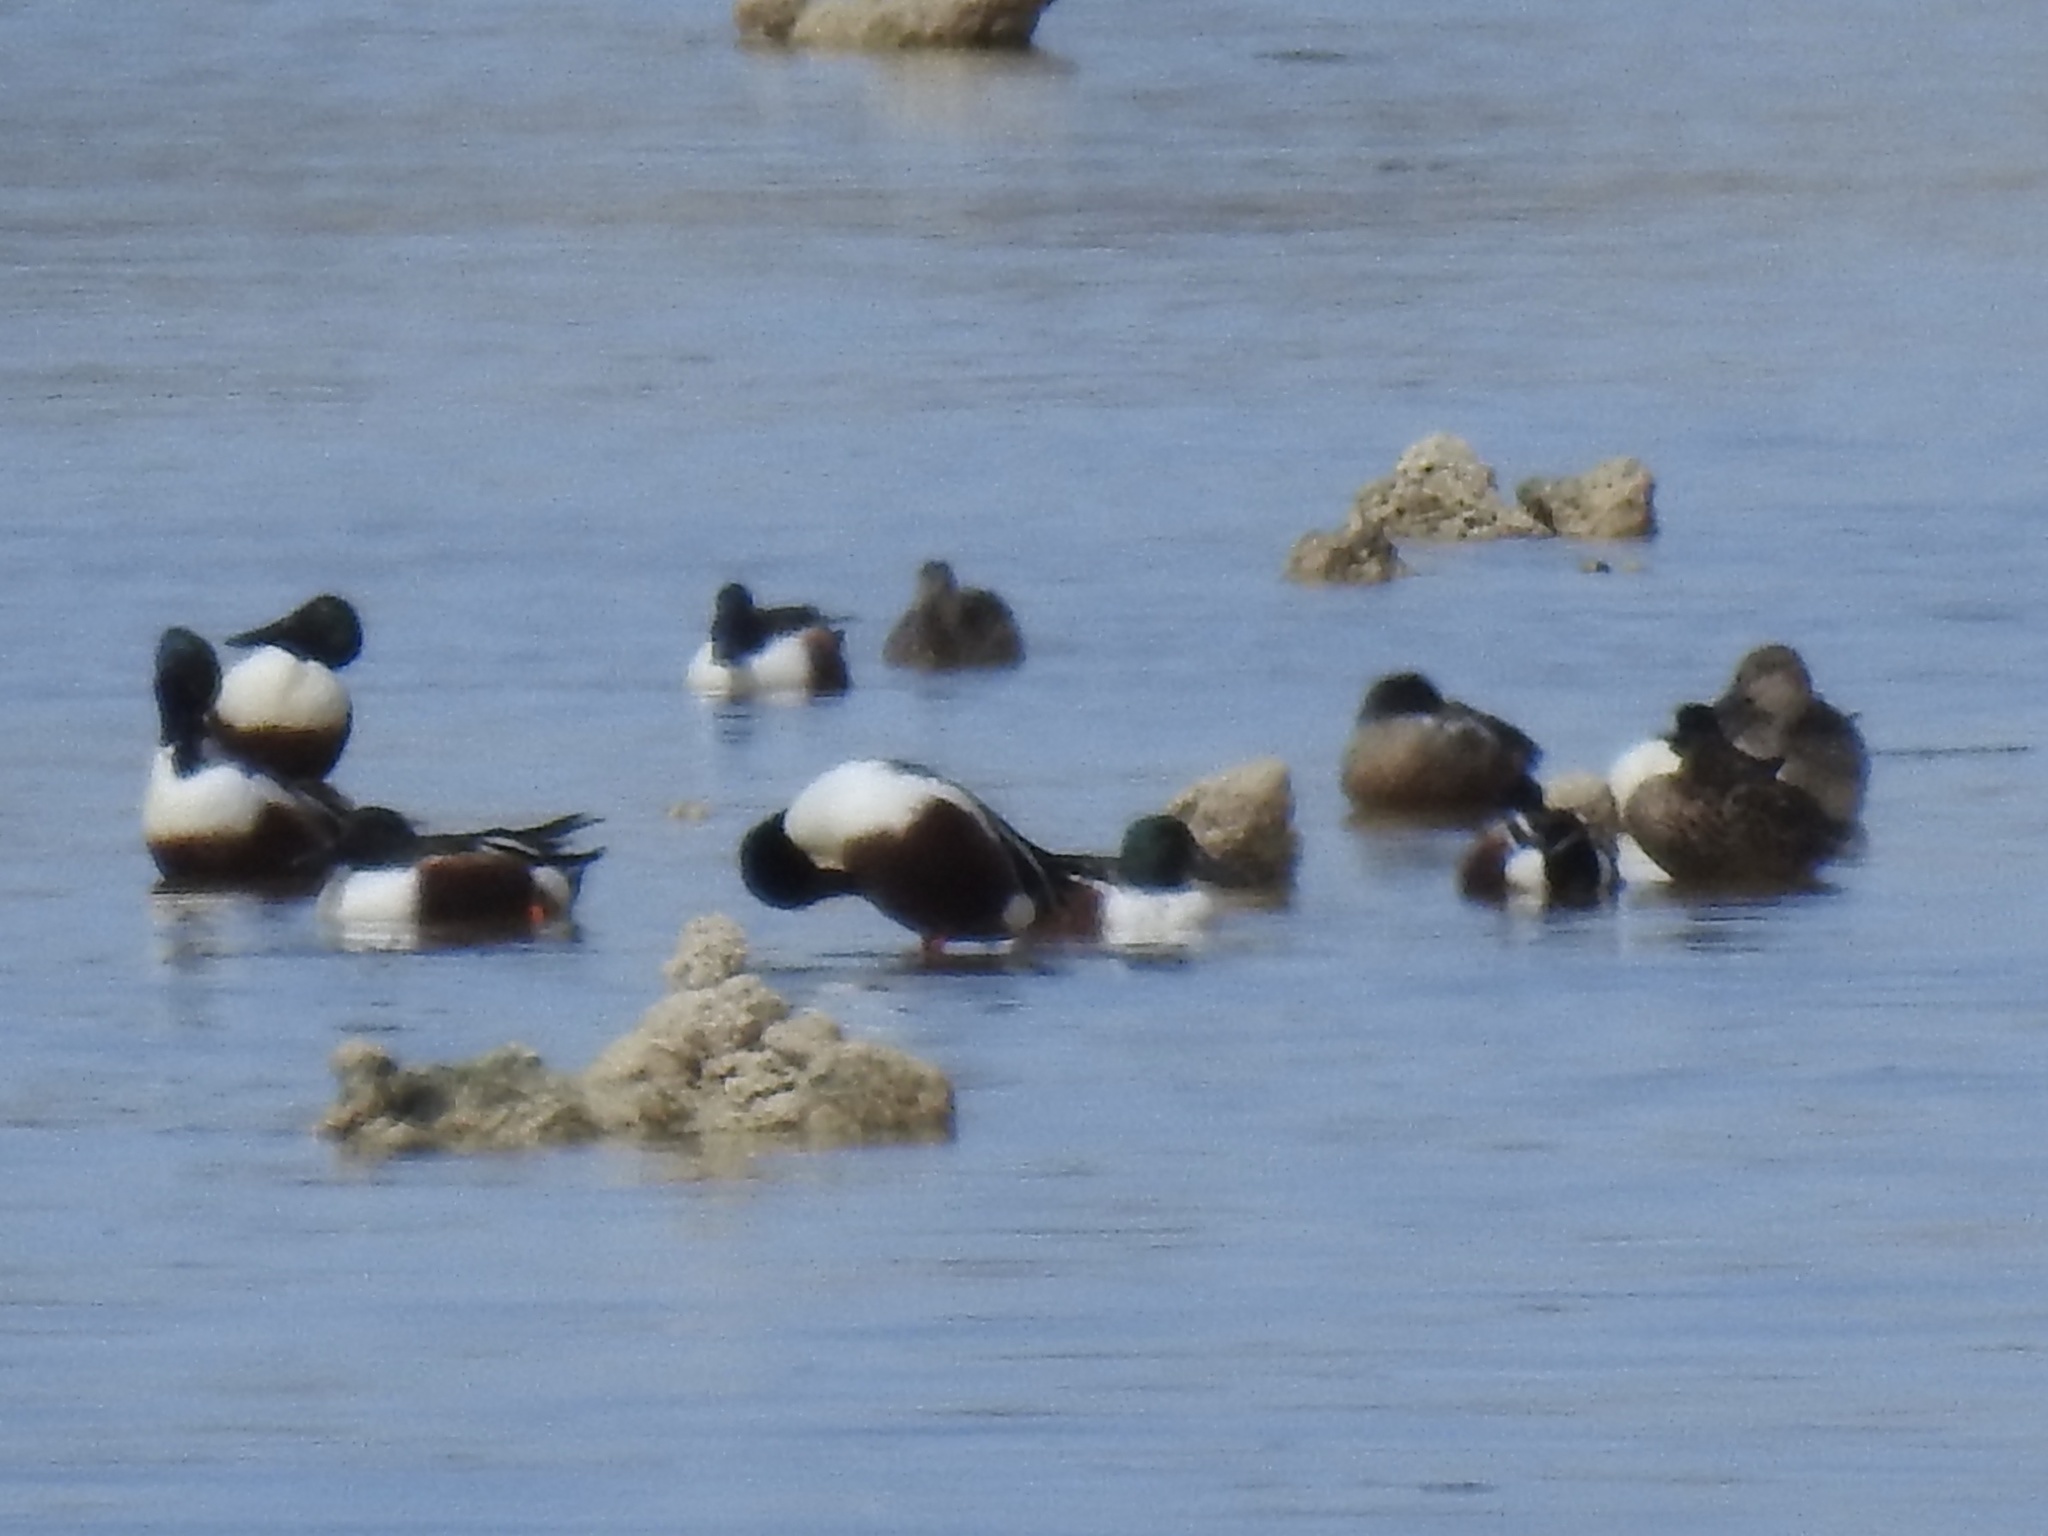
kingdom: Animalia
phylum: Chordata
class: Aves
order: Anseriformes
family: Anatidae
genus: Spatula
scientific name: Spatula clypeata
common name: Northern shoveler
